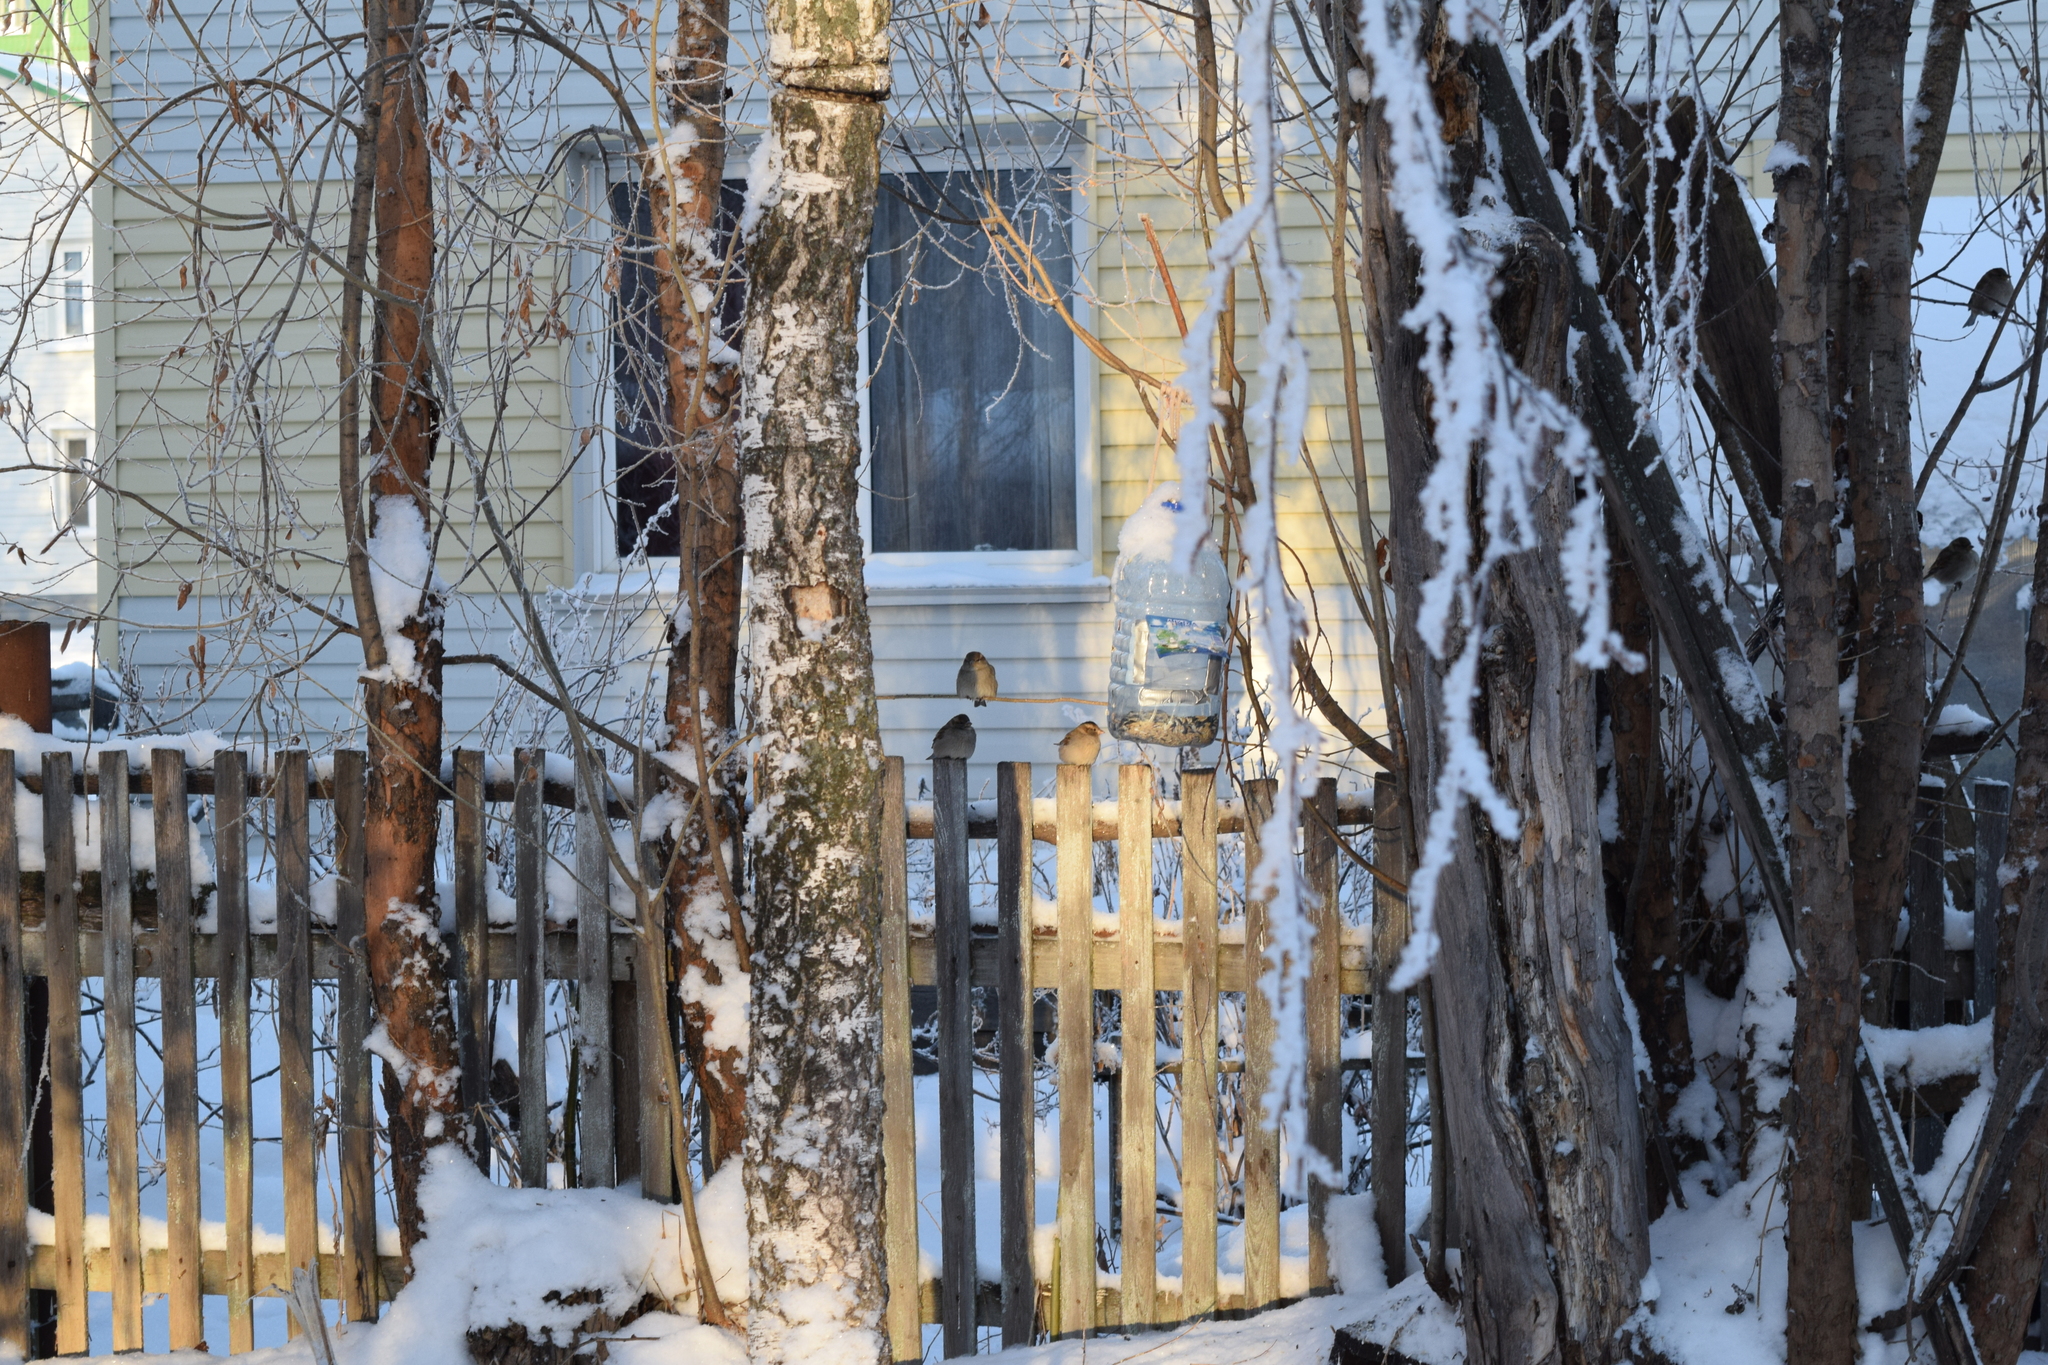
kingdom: Animalia
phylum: Chordata
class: Aves
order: Passeriformes
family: Passeridae
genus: Passer
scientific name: Passer domesticus
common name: House sparrow
